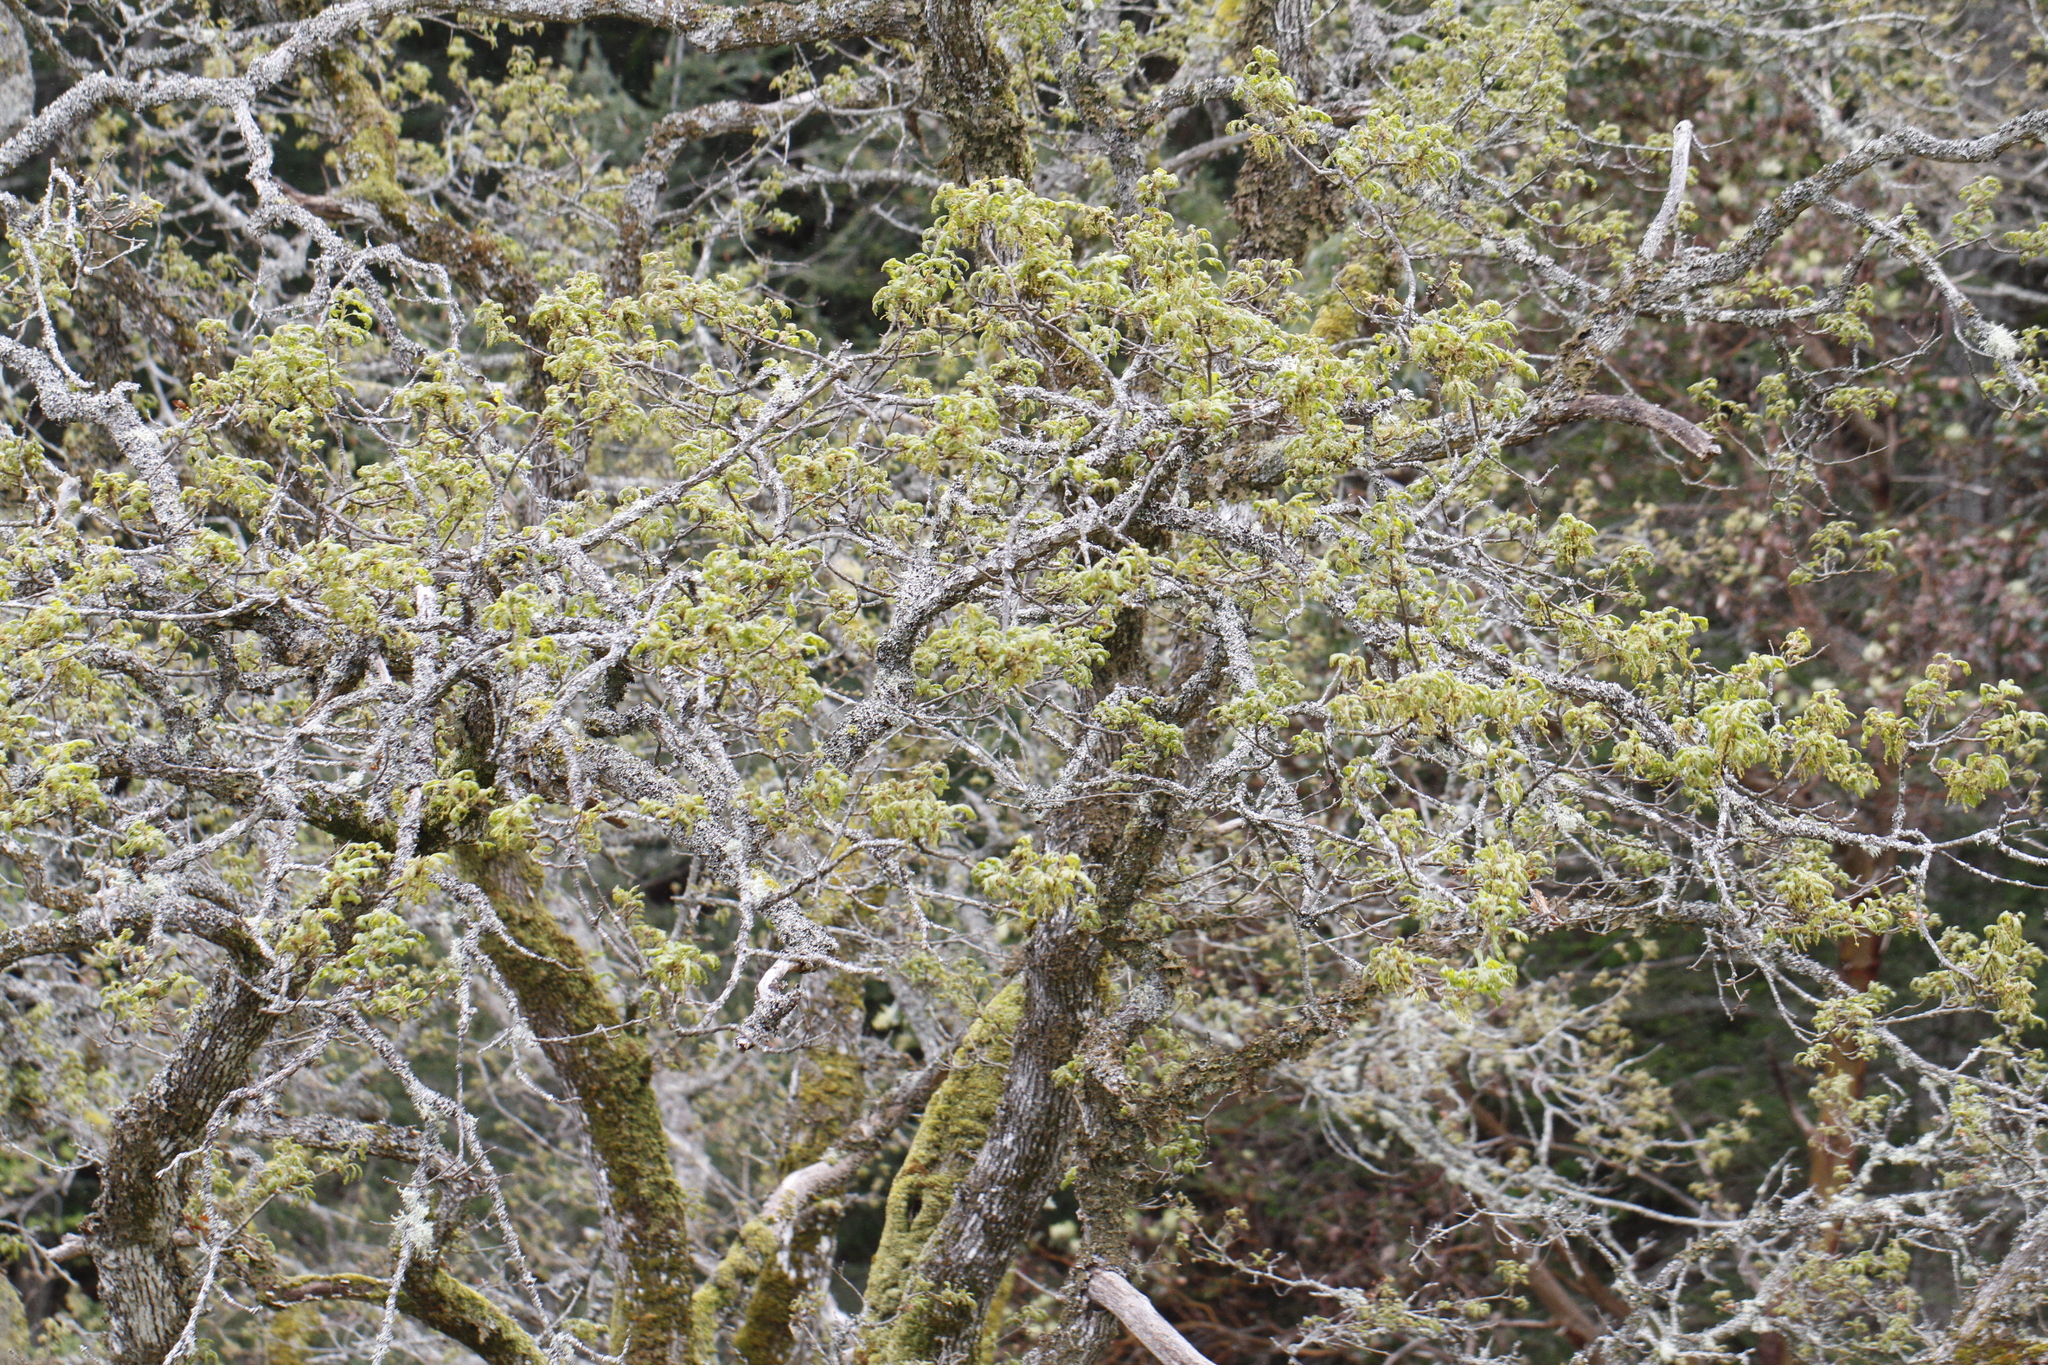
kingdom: Plantae
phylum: Tracheophyta
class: Magnoliopsida
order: Fagales
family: Fagaceae
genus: Quercus
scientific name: Quercus garryana
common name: Garry oak
